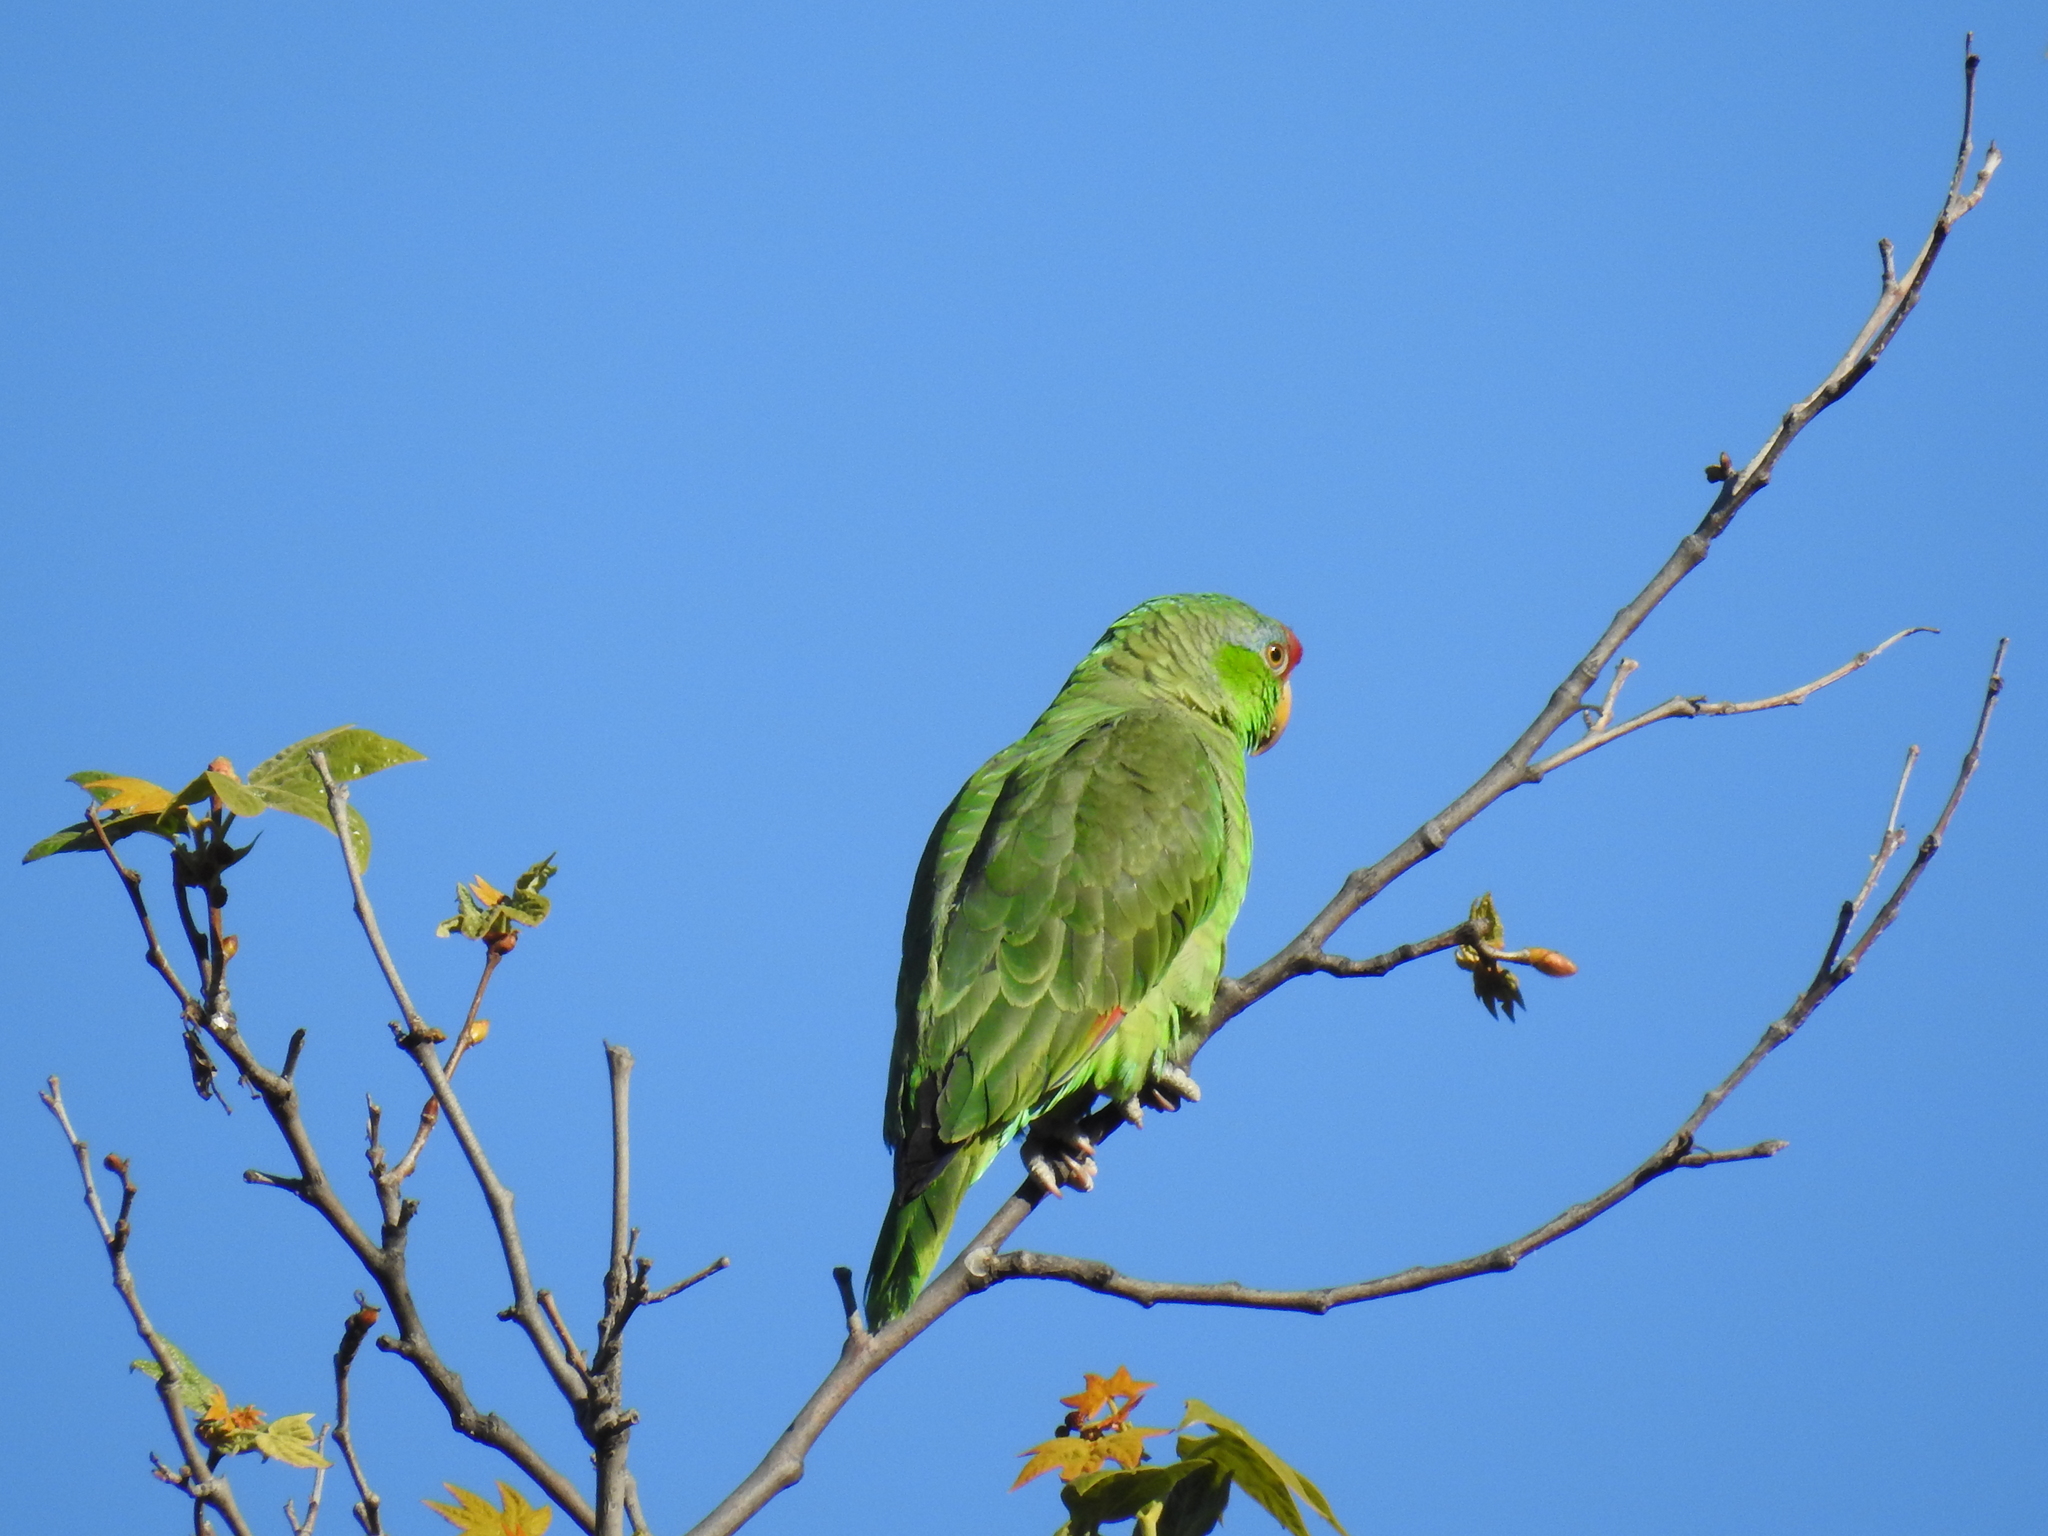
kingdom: Animalia
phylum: Chordata
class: Aves
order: Psittaciformes
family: Psittacidae
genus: Amazona
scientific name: Amazona viridigenalis
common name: Red-crowned amazon
